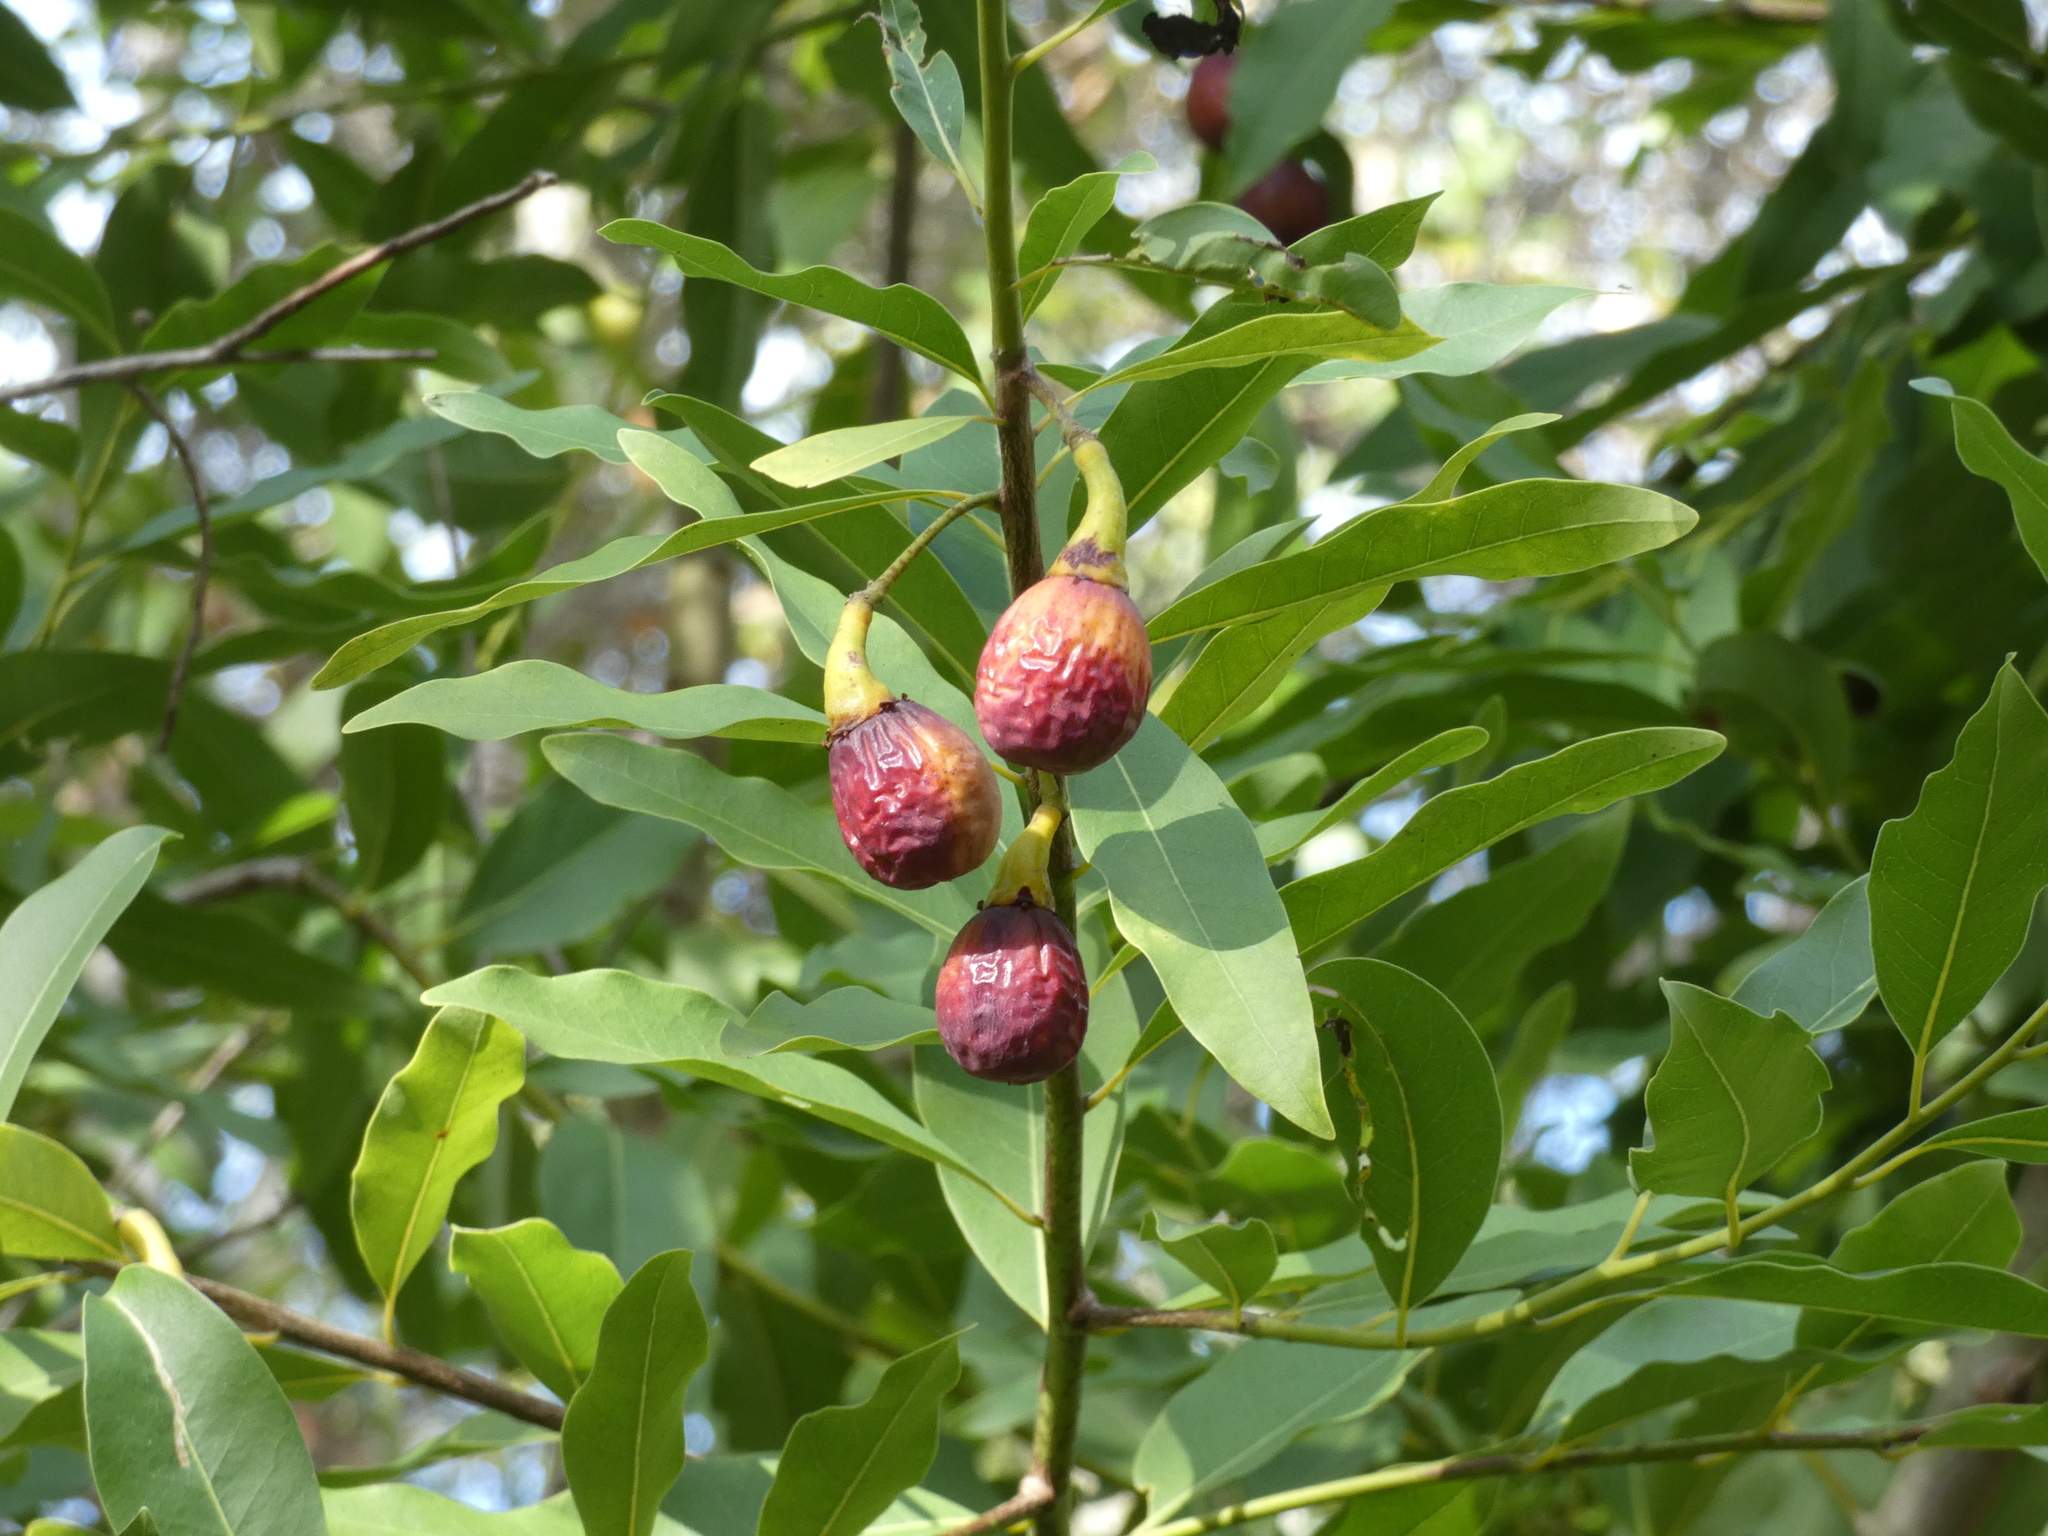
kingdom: Plantae
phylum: Tracheophyta
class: Magnoliopsida
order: Laurales
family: Lauraceae
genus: Umbellularia
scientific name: Umbellularia californica
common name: California bay
